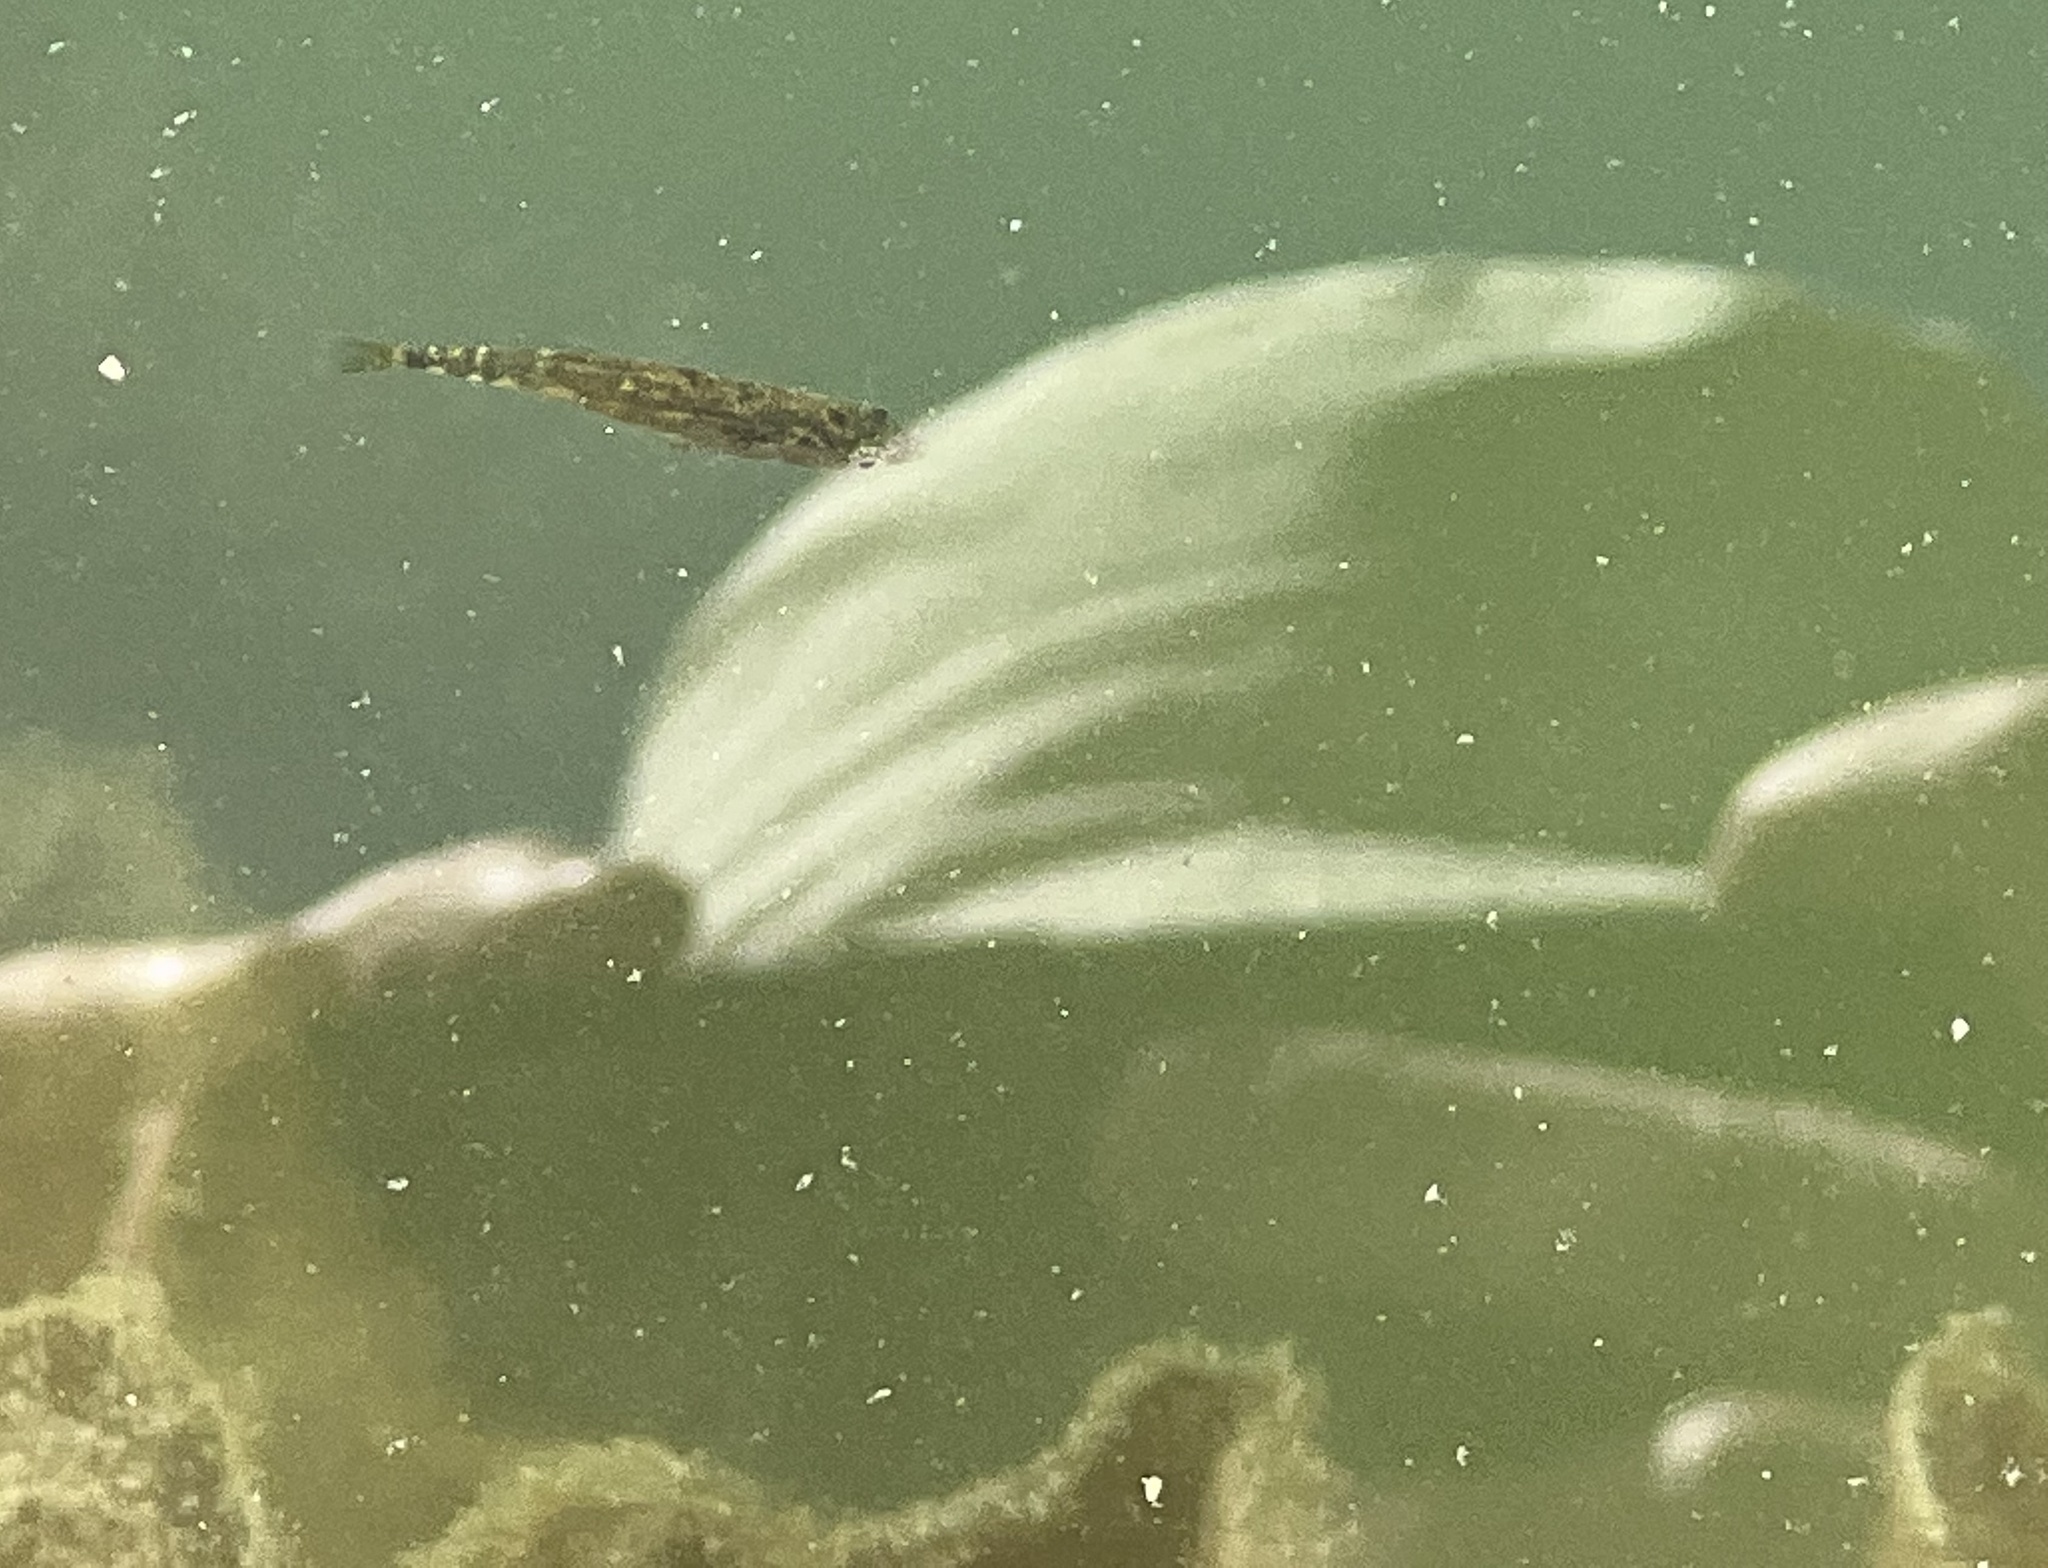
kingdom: Animalia
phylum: Chordata
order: Gasterosteiformes
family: Gasterosteidae
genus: Gasterosteus
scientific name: Gasterosteus aculeatus
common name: Three-spined stickleback
